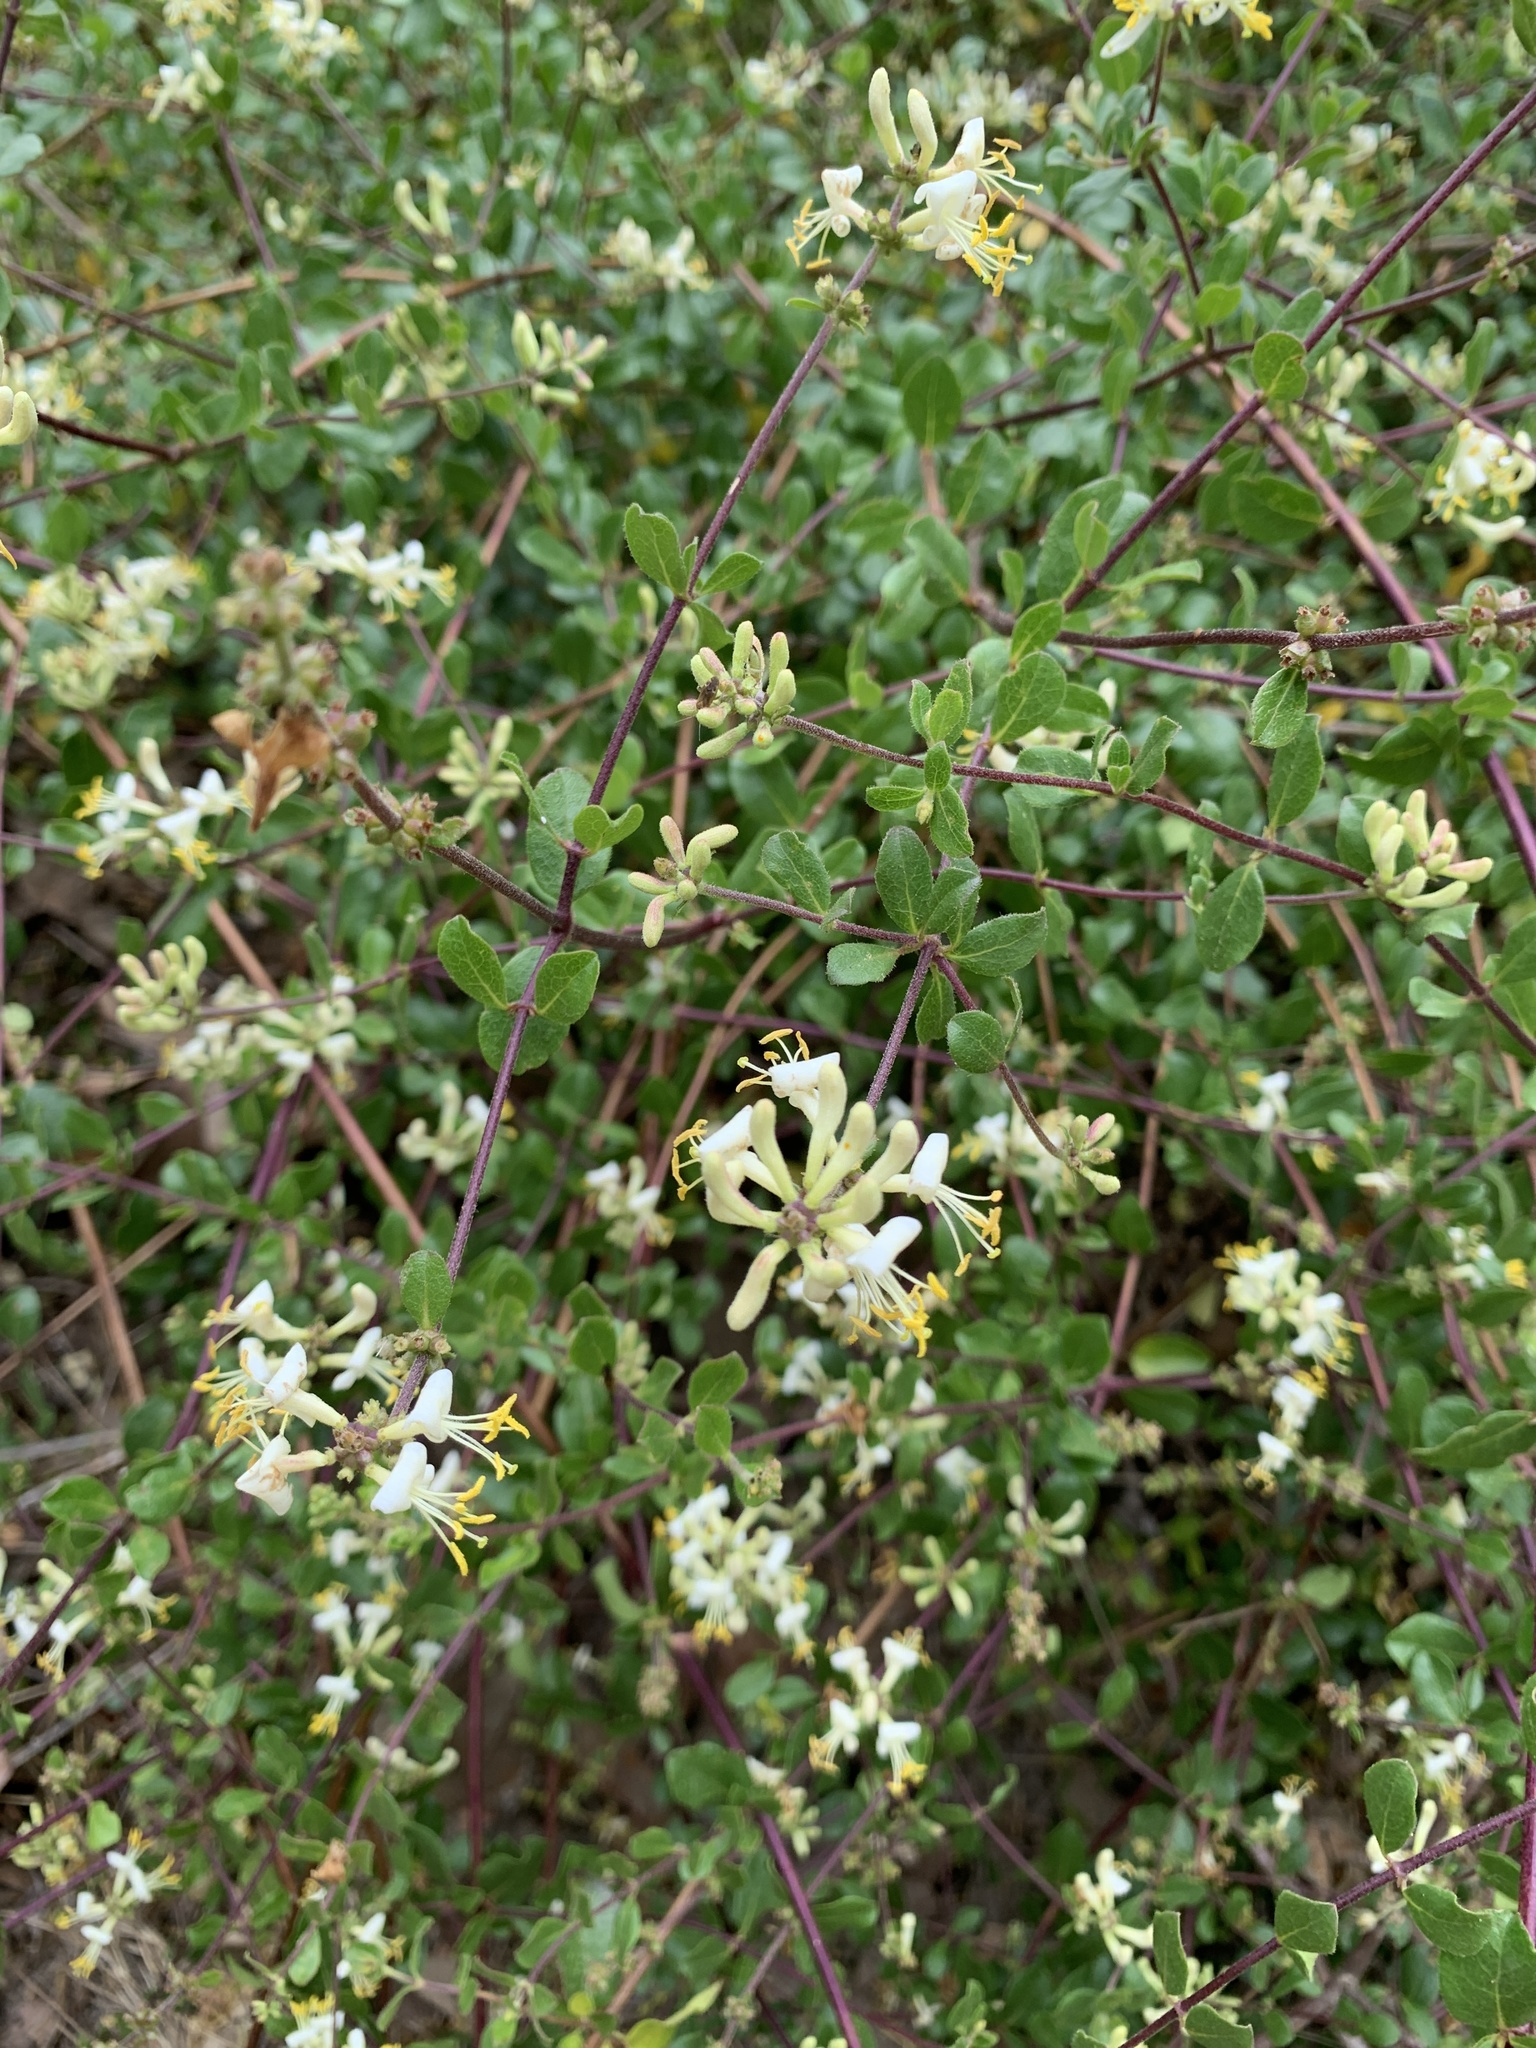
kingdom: Plantae
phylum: Tracheophyta
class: Magnoliopsida
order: Dipsacales
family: Caprifoliaceae
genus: Lonicera
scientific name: Lonicera subspicata
